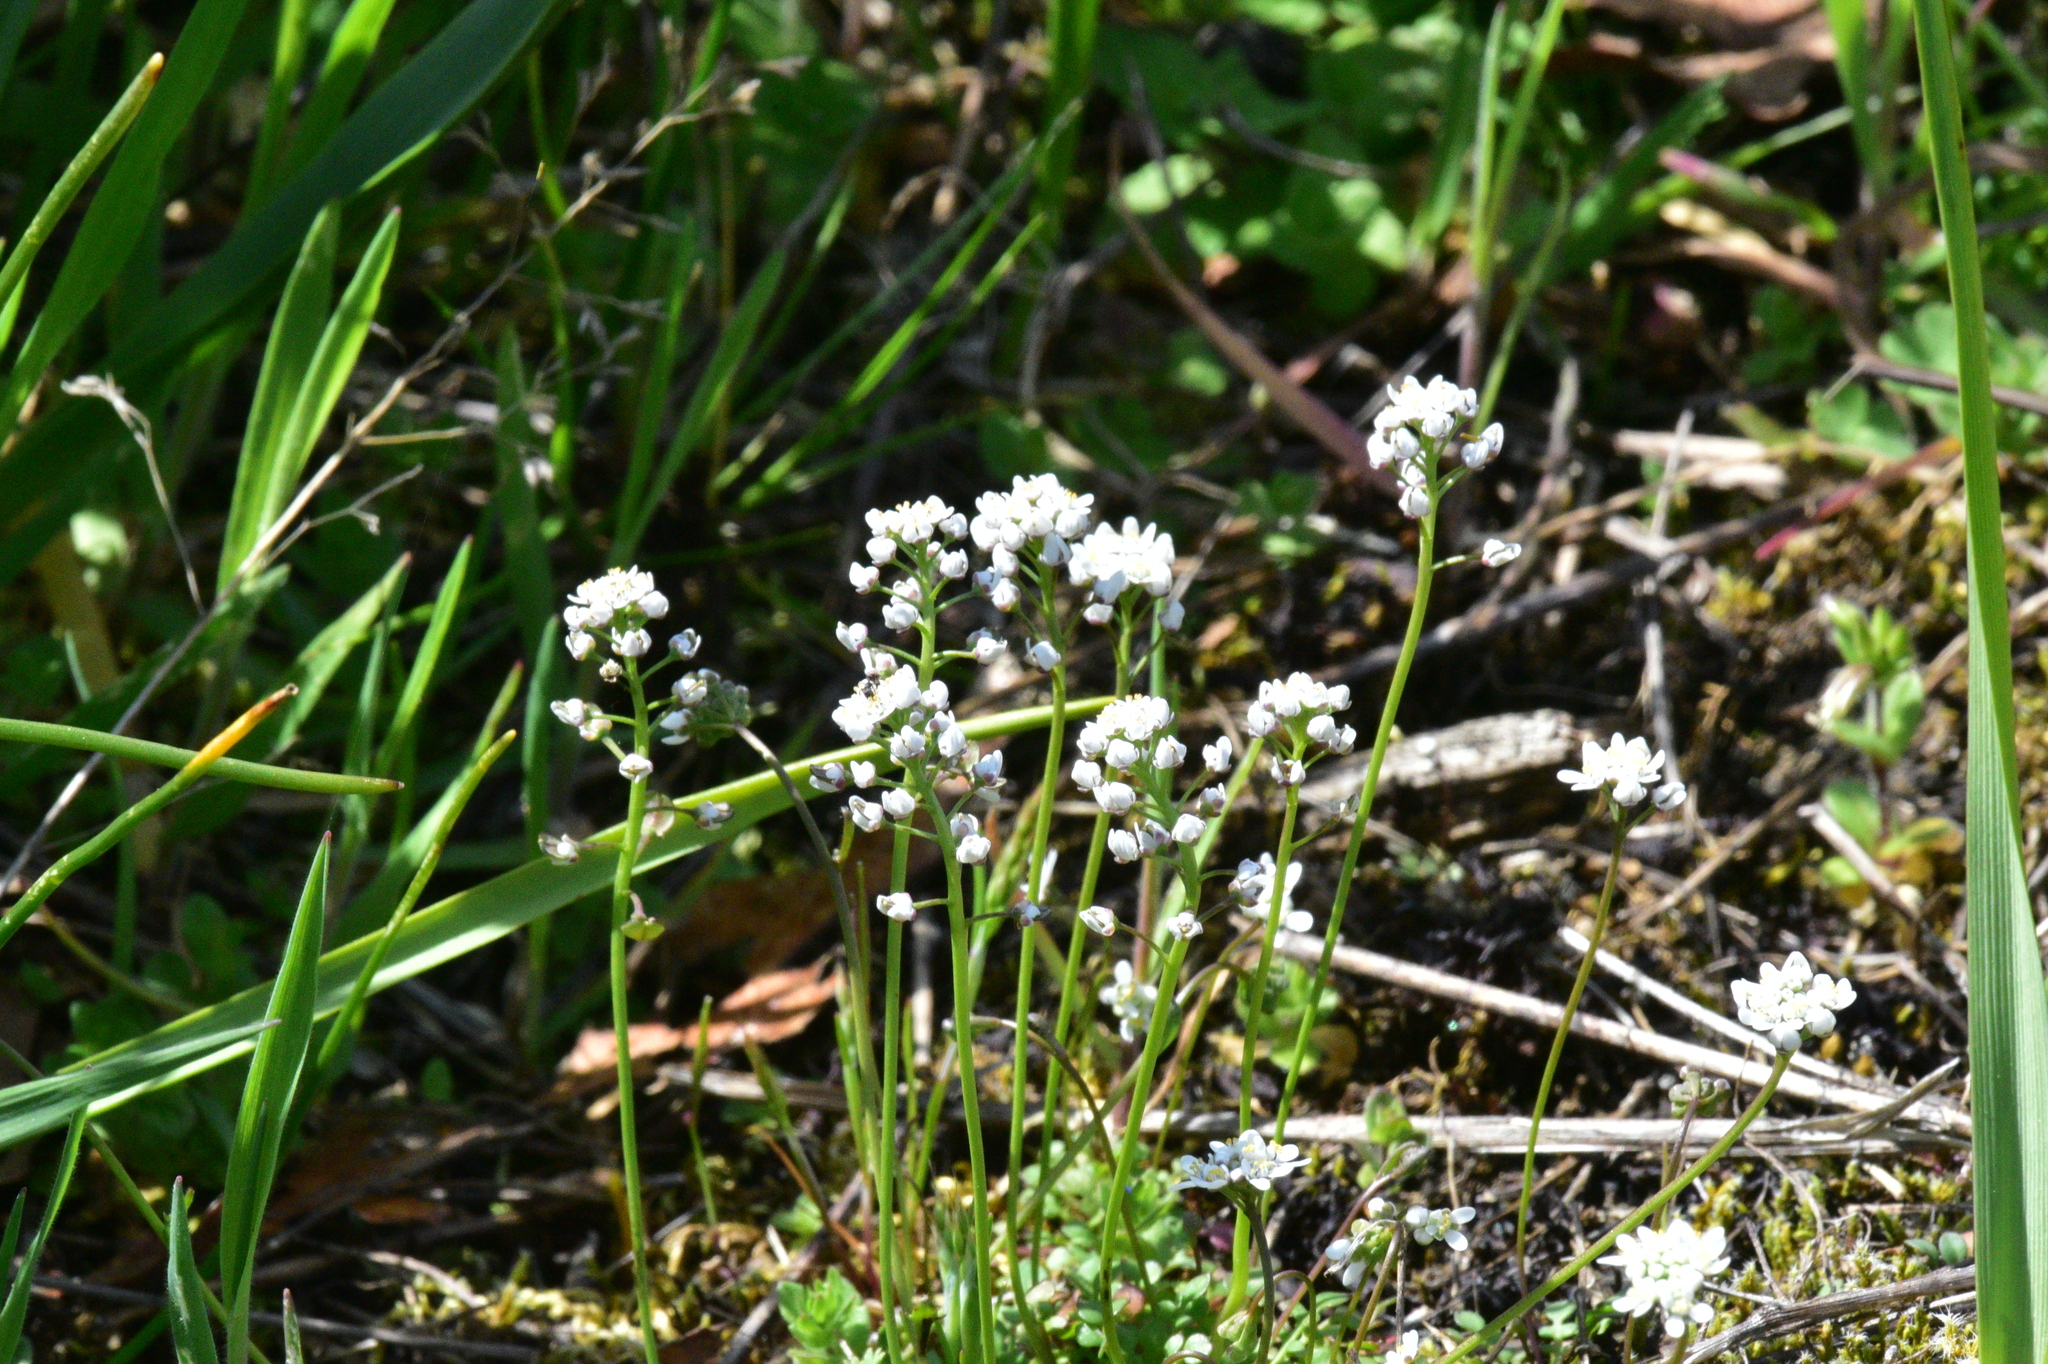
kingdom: Plantae
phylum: Tracheophyta
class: Magnoliopsida
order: Brassicales
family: Brassicaceae
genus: Teesdalia
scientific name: Teesdalia nudicaulis
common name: Shepherd's cress
